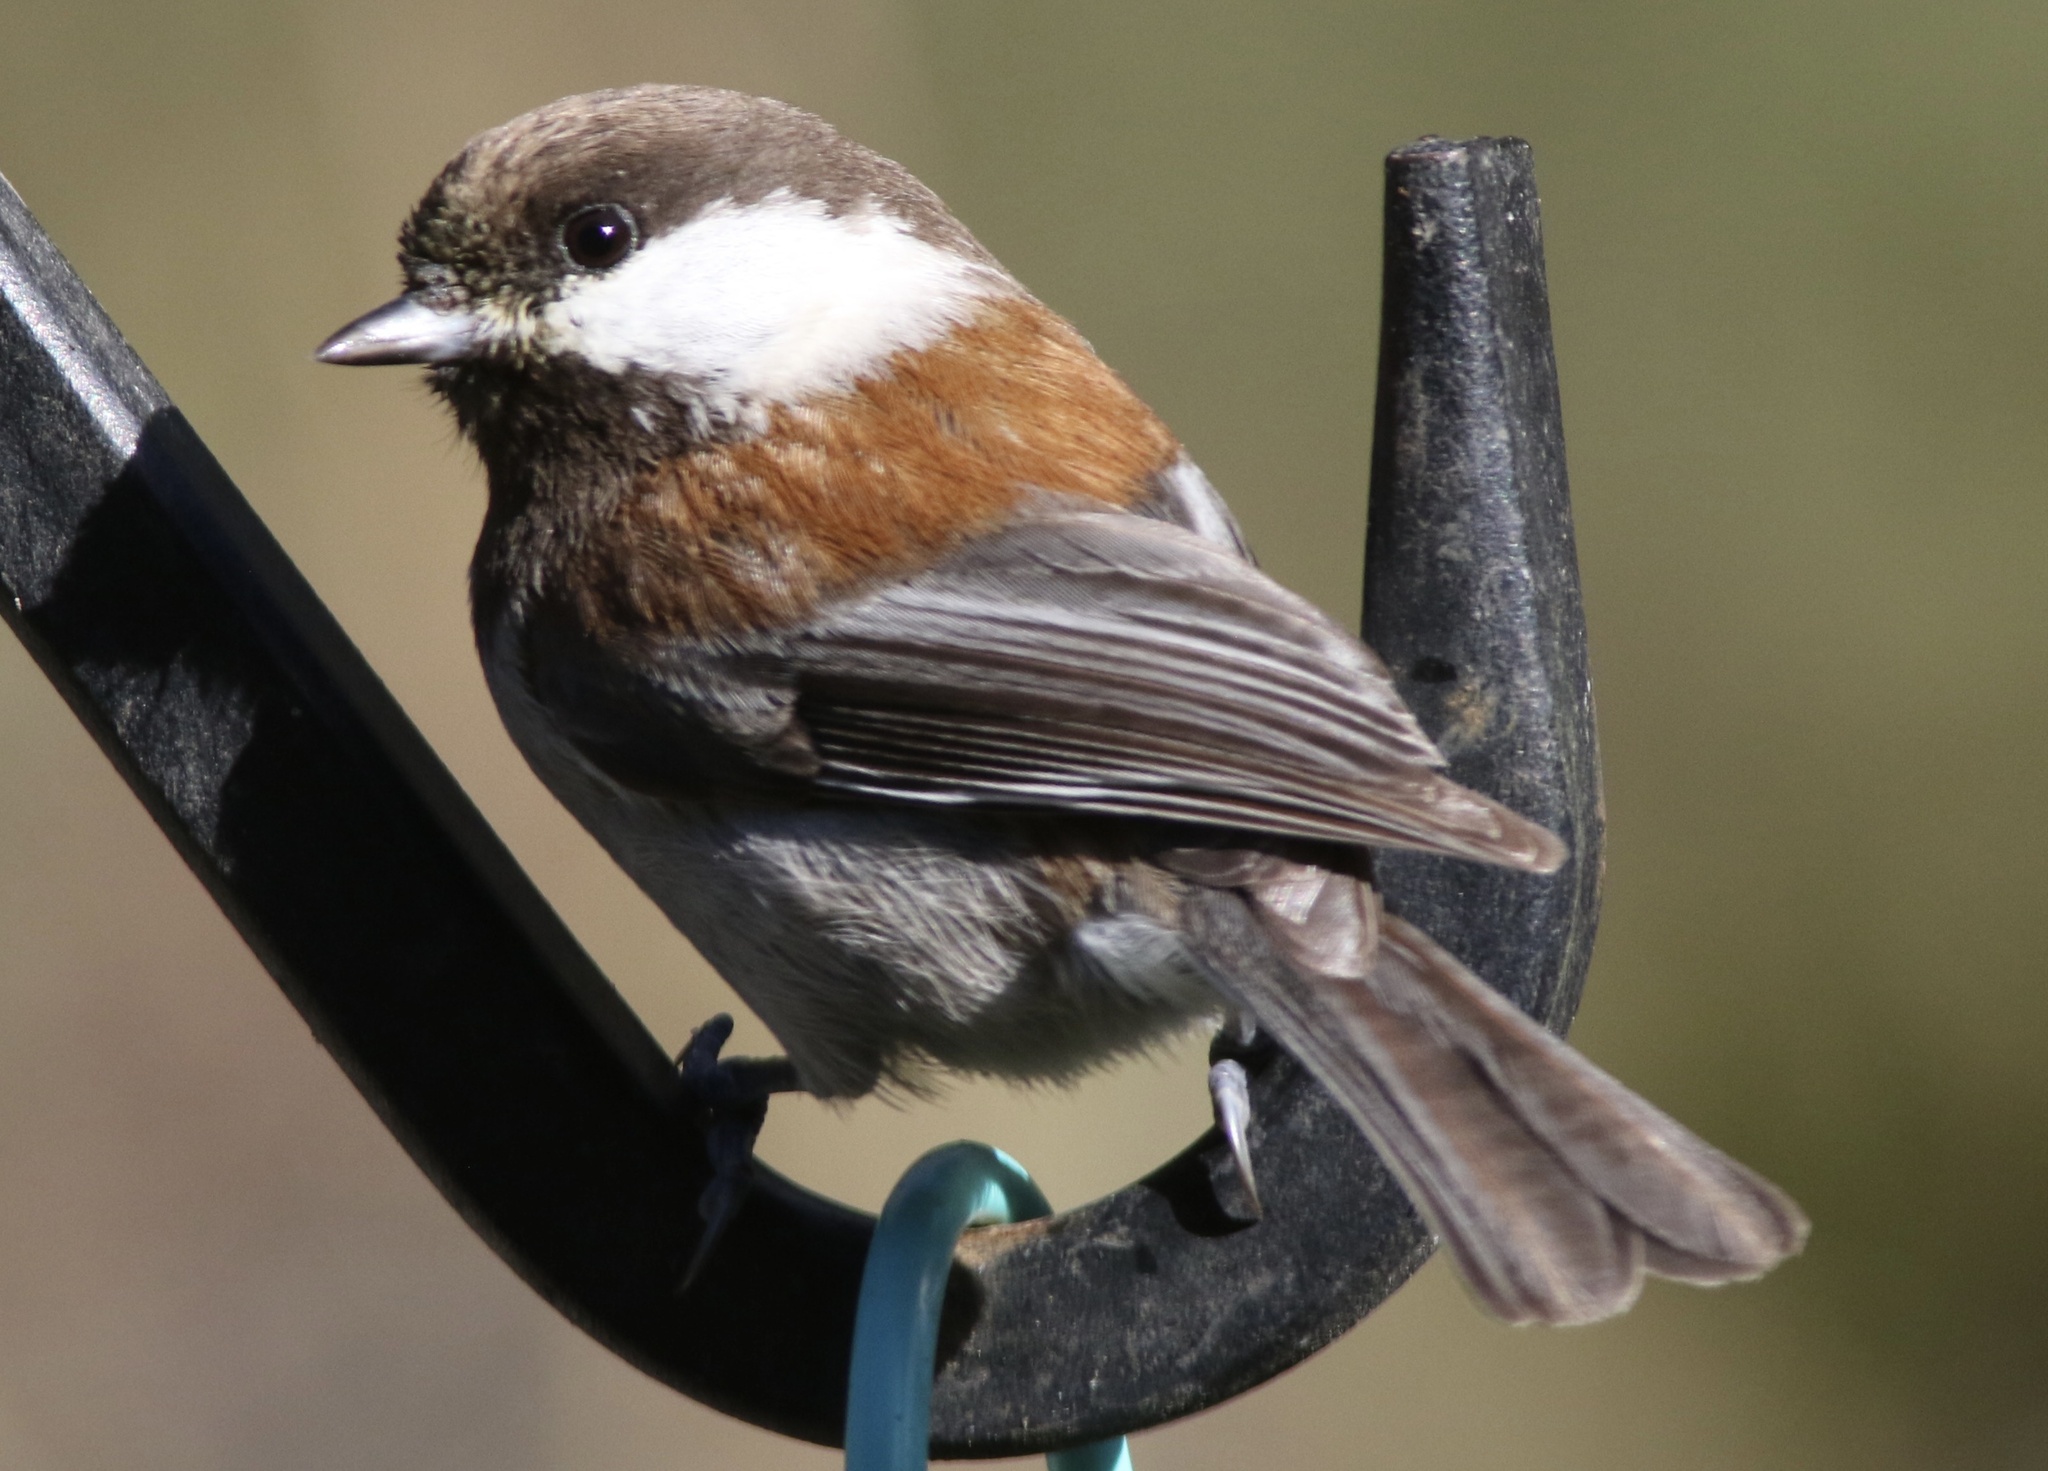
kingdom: Animalia
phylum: Chordata
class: Aves
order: Passeriformes
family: Paridae
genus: Poecile
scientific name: Poecile rufescens
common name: Chestnut-backed chickadee
